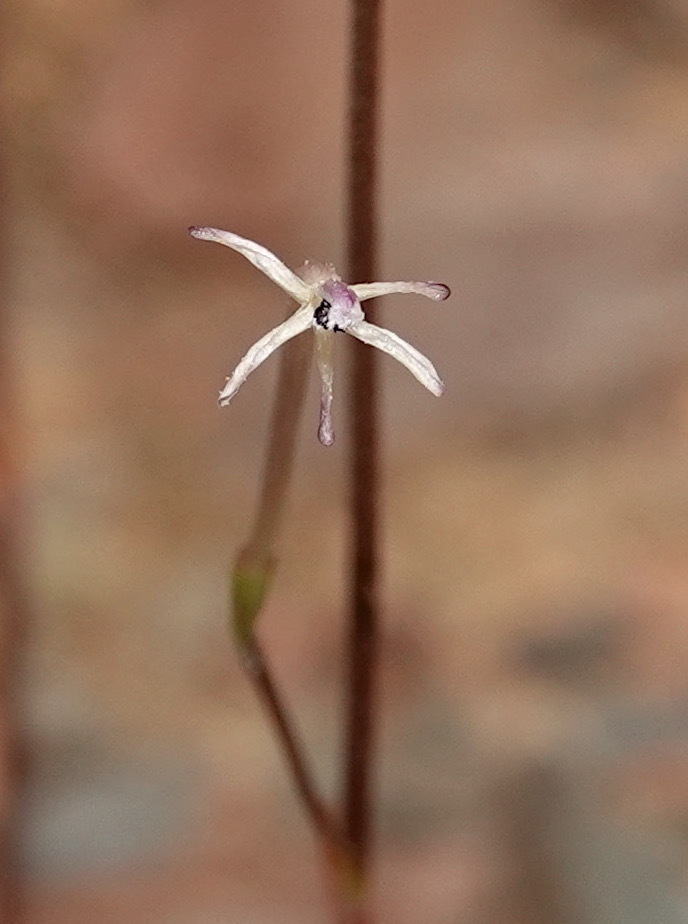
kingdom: Plantae
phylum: Tracheophyta
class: Liliopsida
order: Asparagales
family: Iridaceae
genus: Xenoscapa
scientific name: Xenoscapa fistulosa
